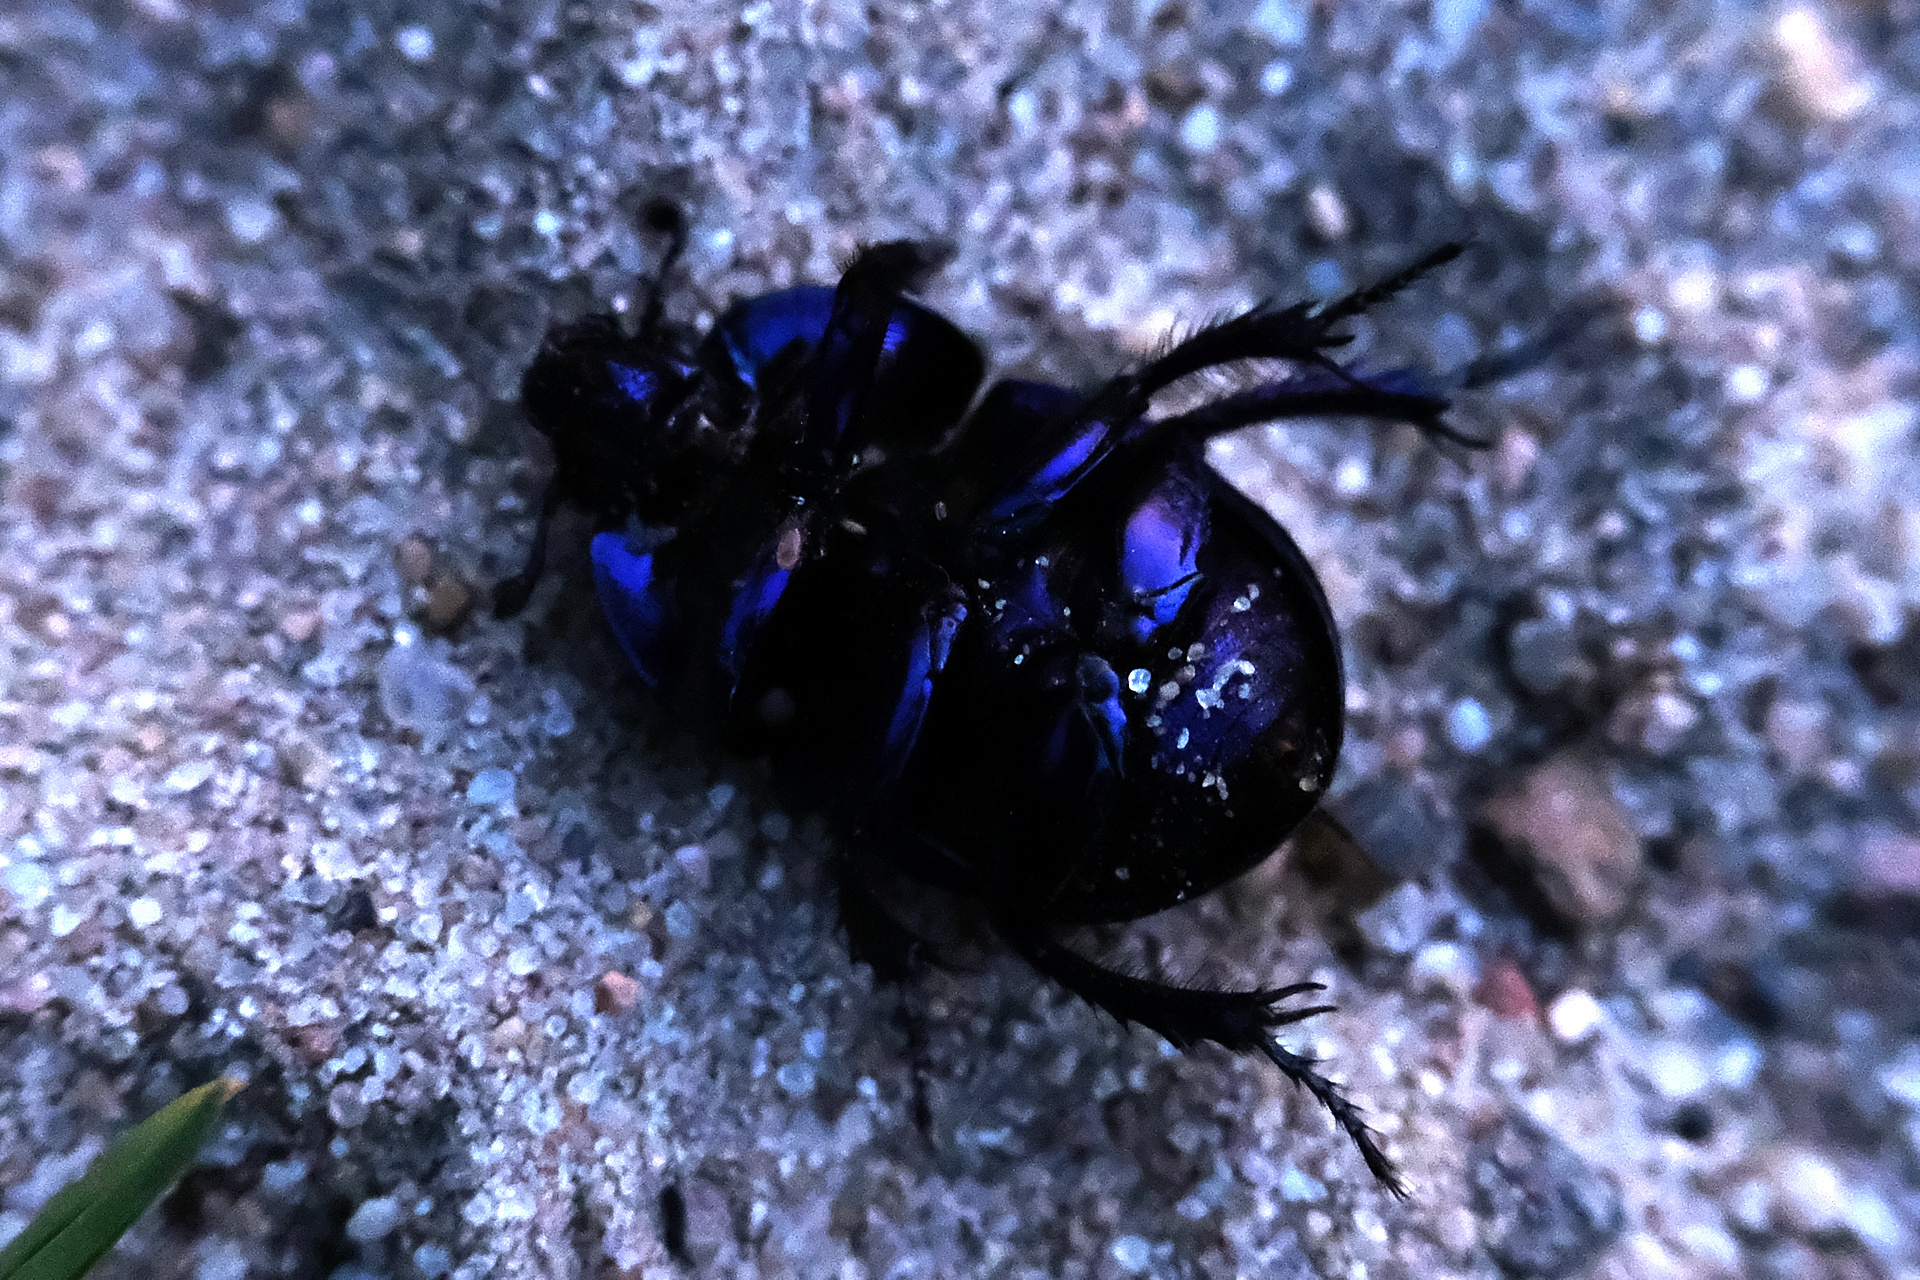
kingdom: Animalia
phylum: Arthropoda
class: Insecta
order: Coleoptera
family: Geotrupidae
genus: Trypocopris
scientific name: Trypocopris vernalis
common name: Spring dumbledor
